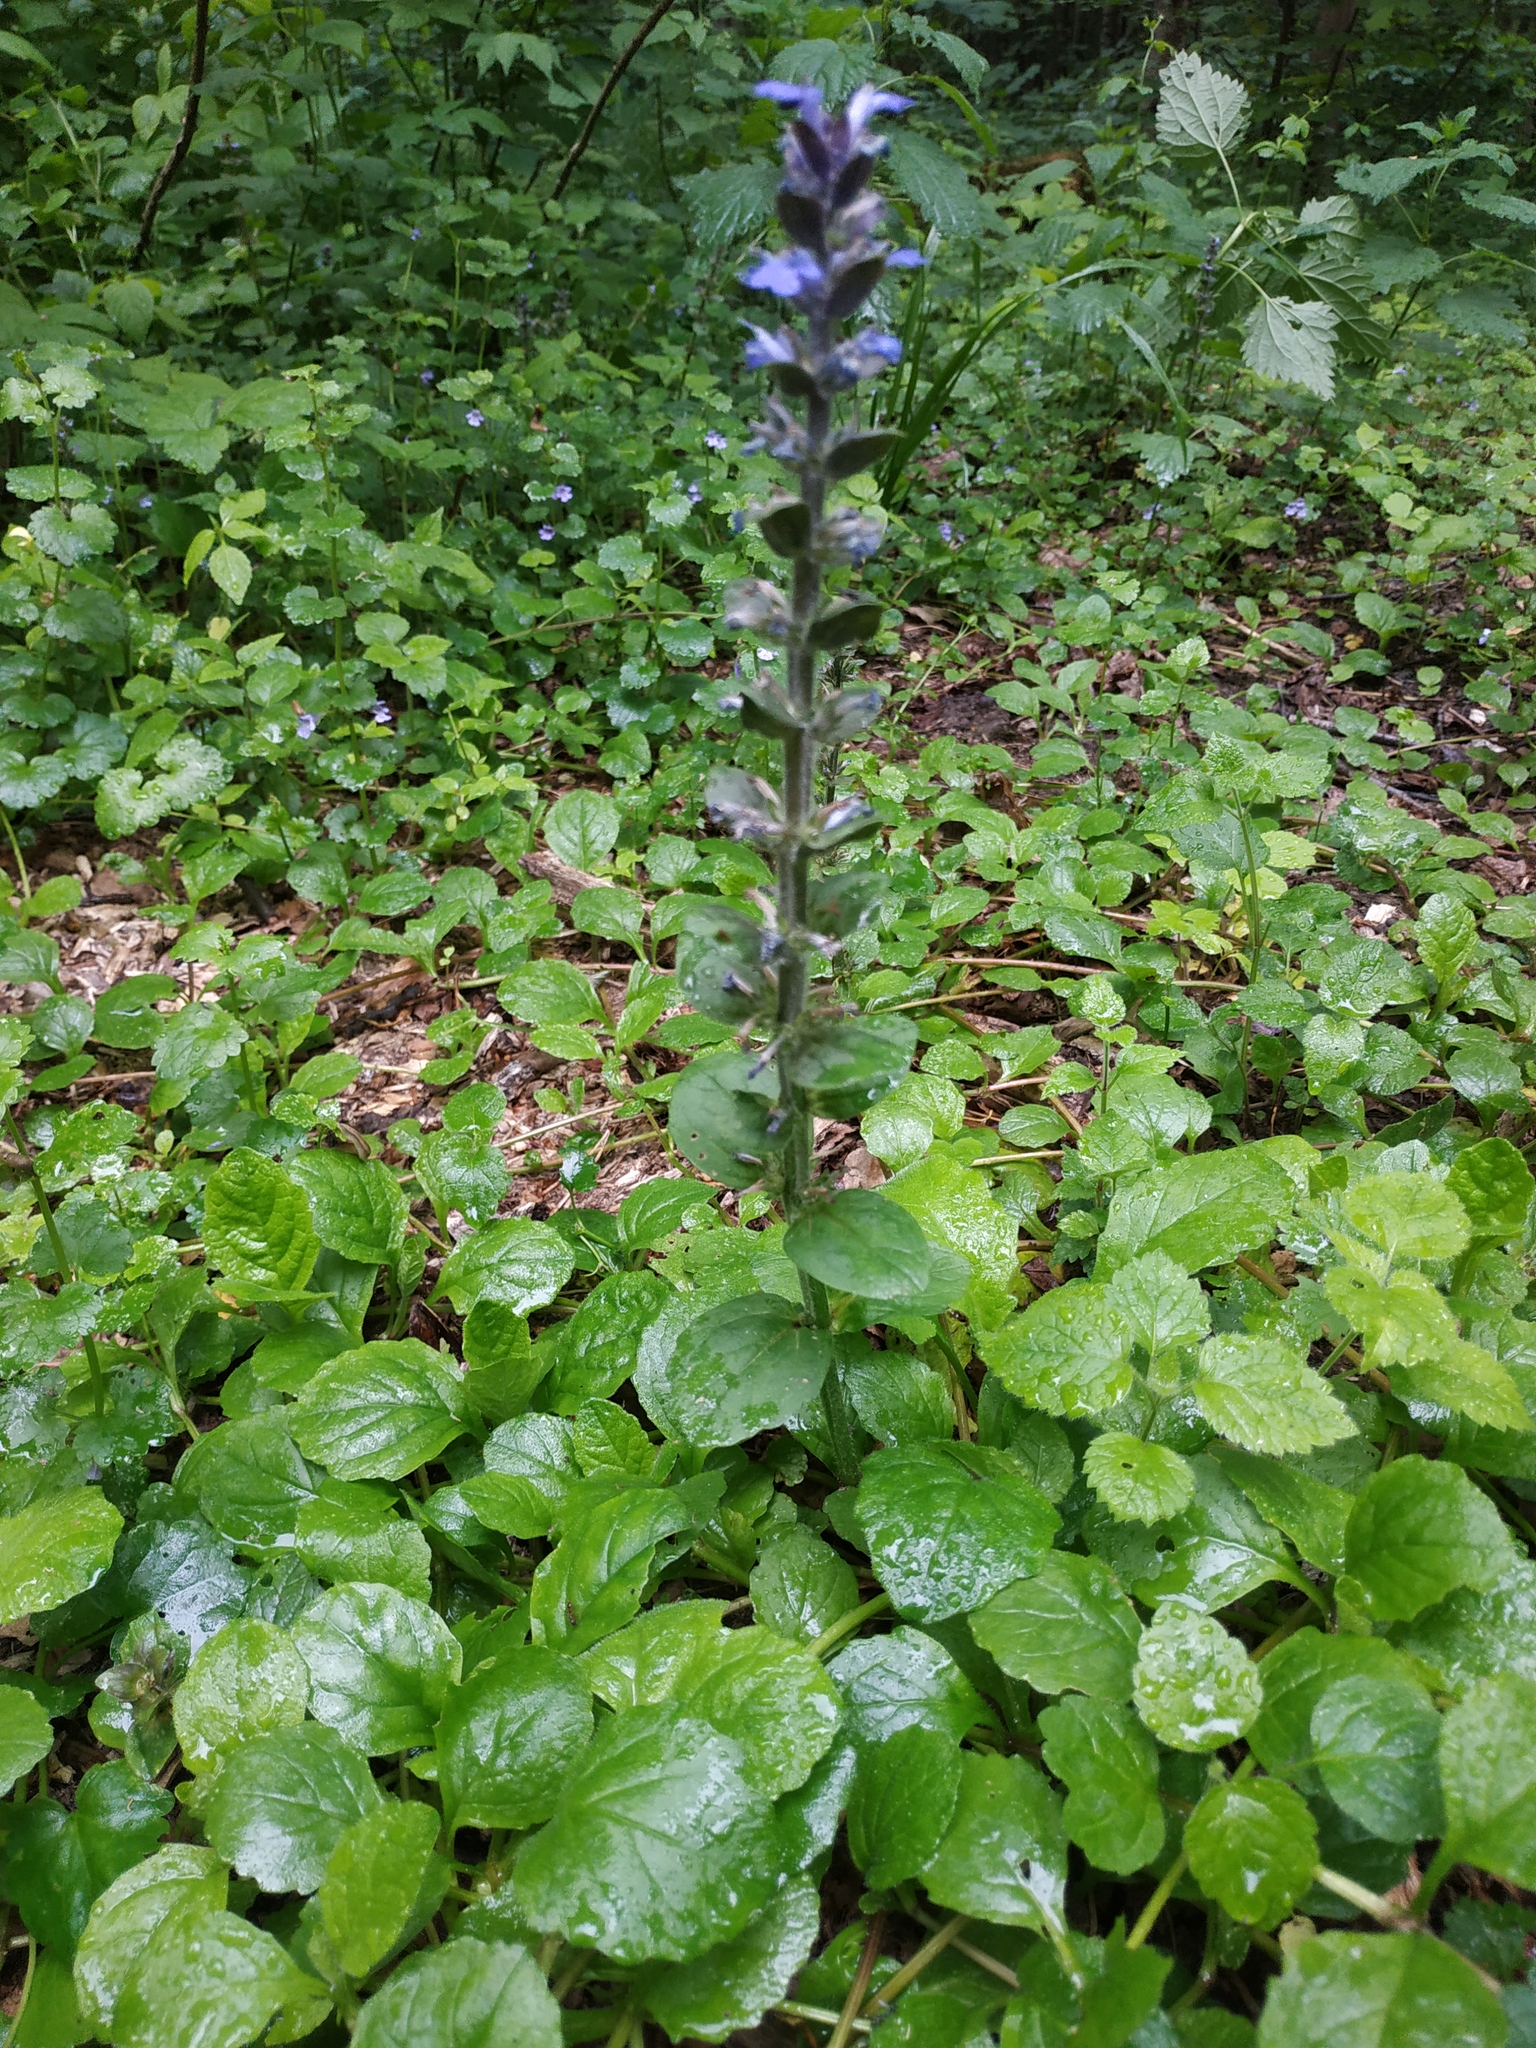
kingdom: Plantae
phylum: Tracheophyta
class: Magnoliopsida
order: Lamiales
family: Lamiaceae
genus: Ajuga
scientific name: Ajuga reptans
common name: Bugle
